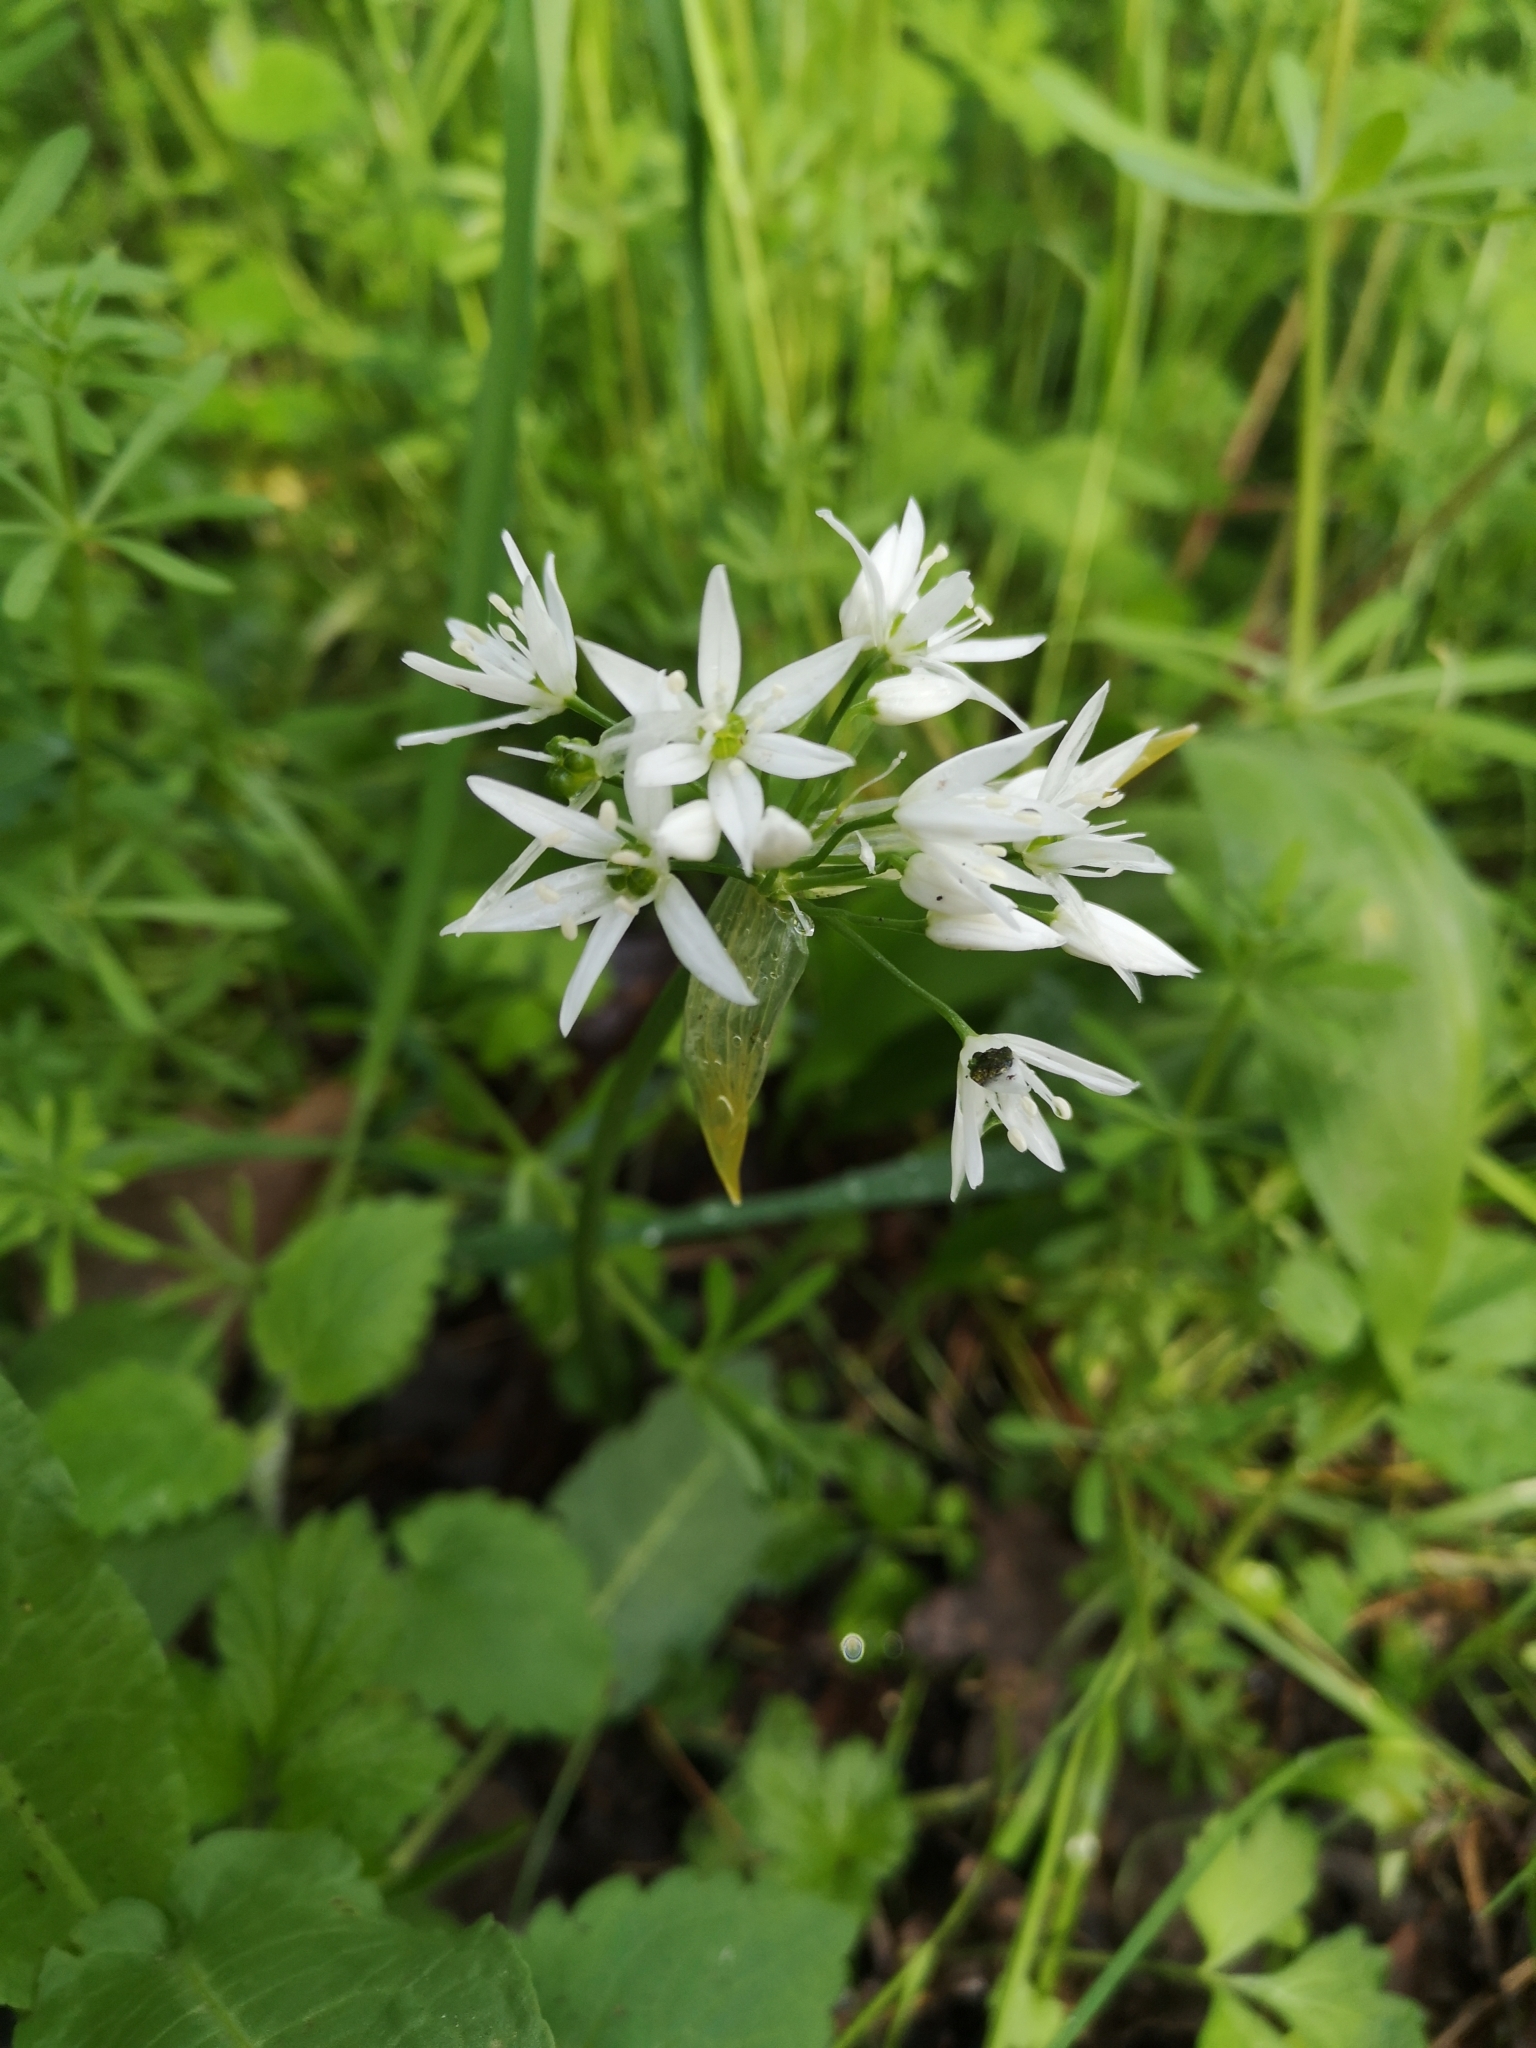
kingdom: Plantae
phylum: Tracheophyta
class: Liliopsida
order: Asparagales
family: Amaryllidaceae
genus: Allium
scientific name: Allium ursinum
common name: Ramsons
